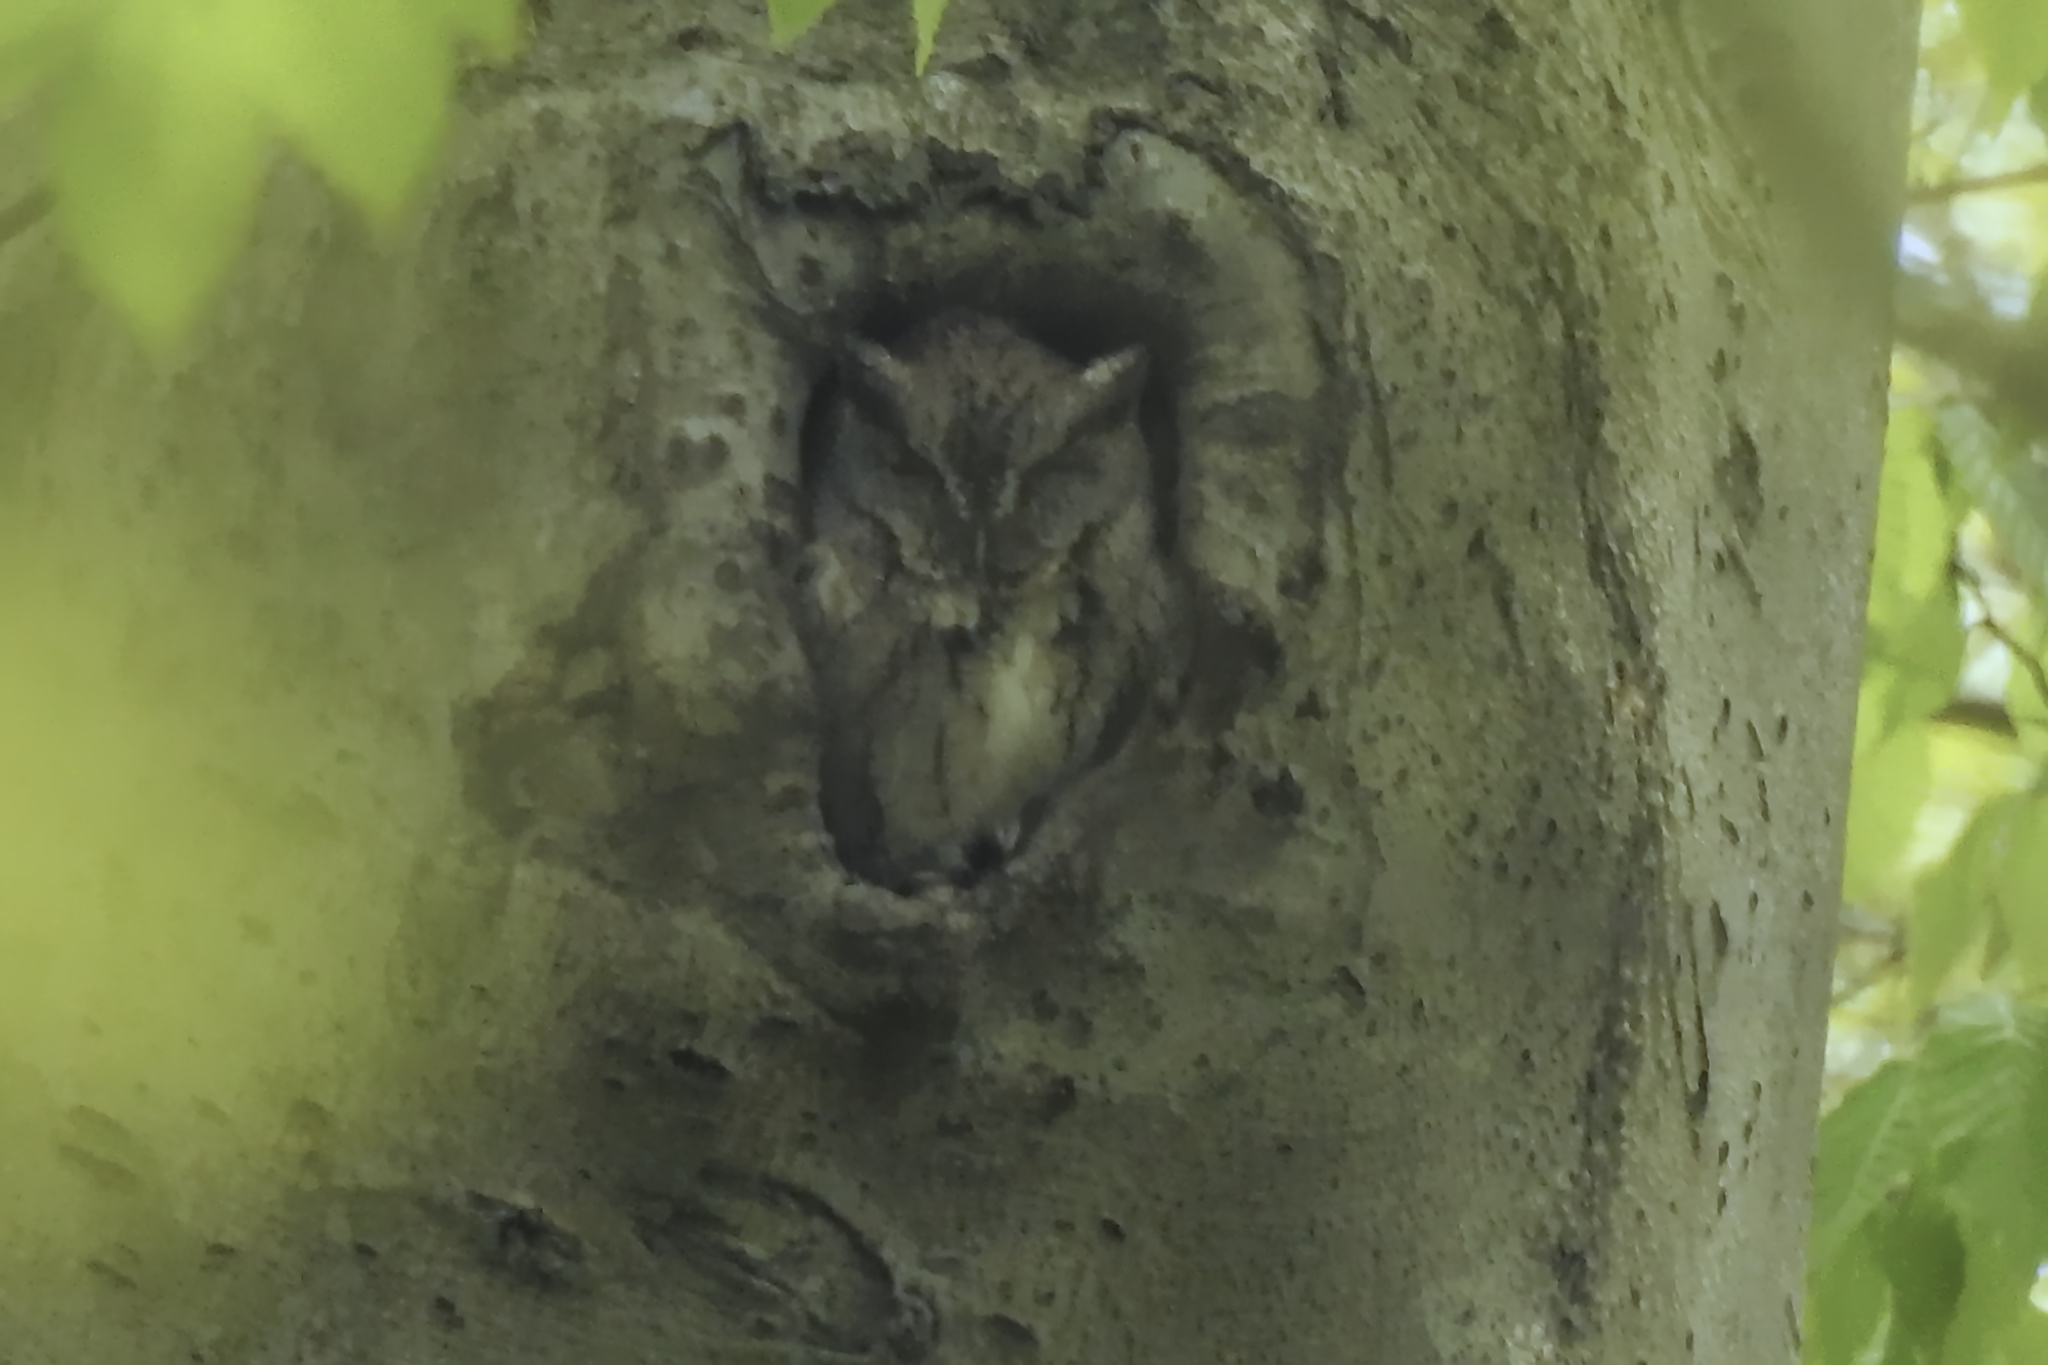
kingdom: Animalia
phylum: Chordata
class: Aves
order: Strigiformes
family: Strigidae
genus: Megascops
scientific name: Megascops asio
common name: Eastern screech-owl
